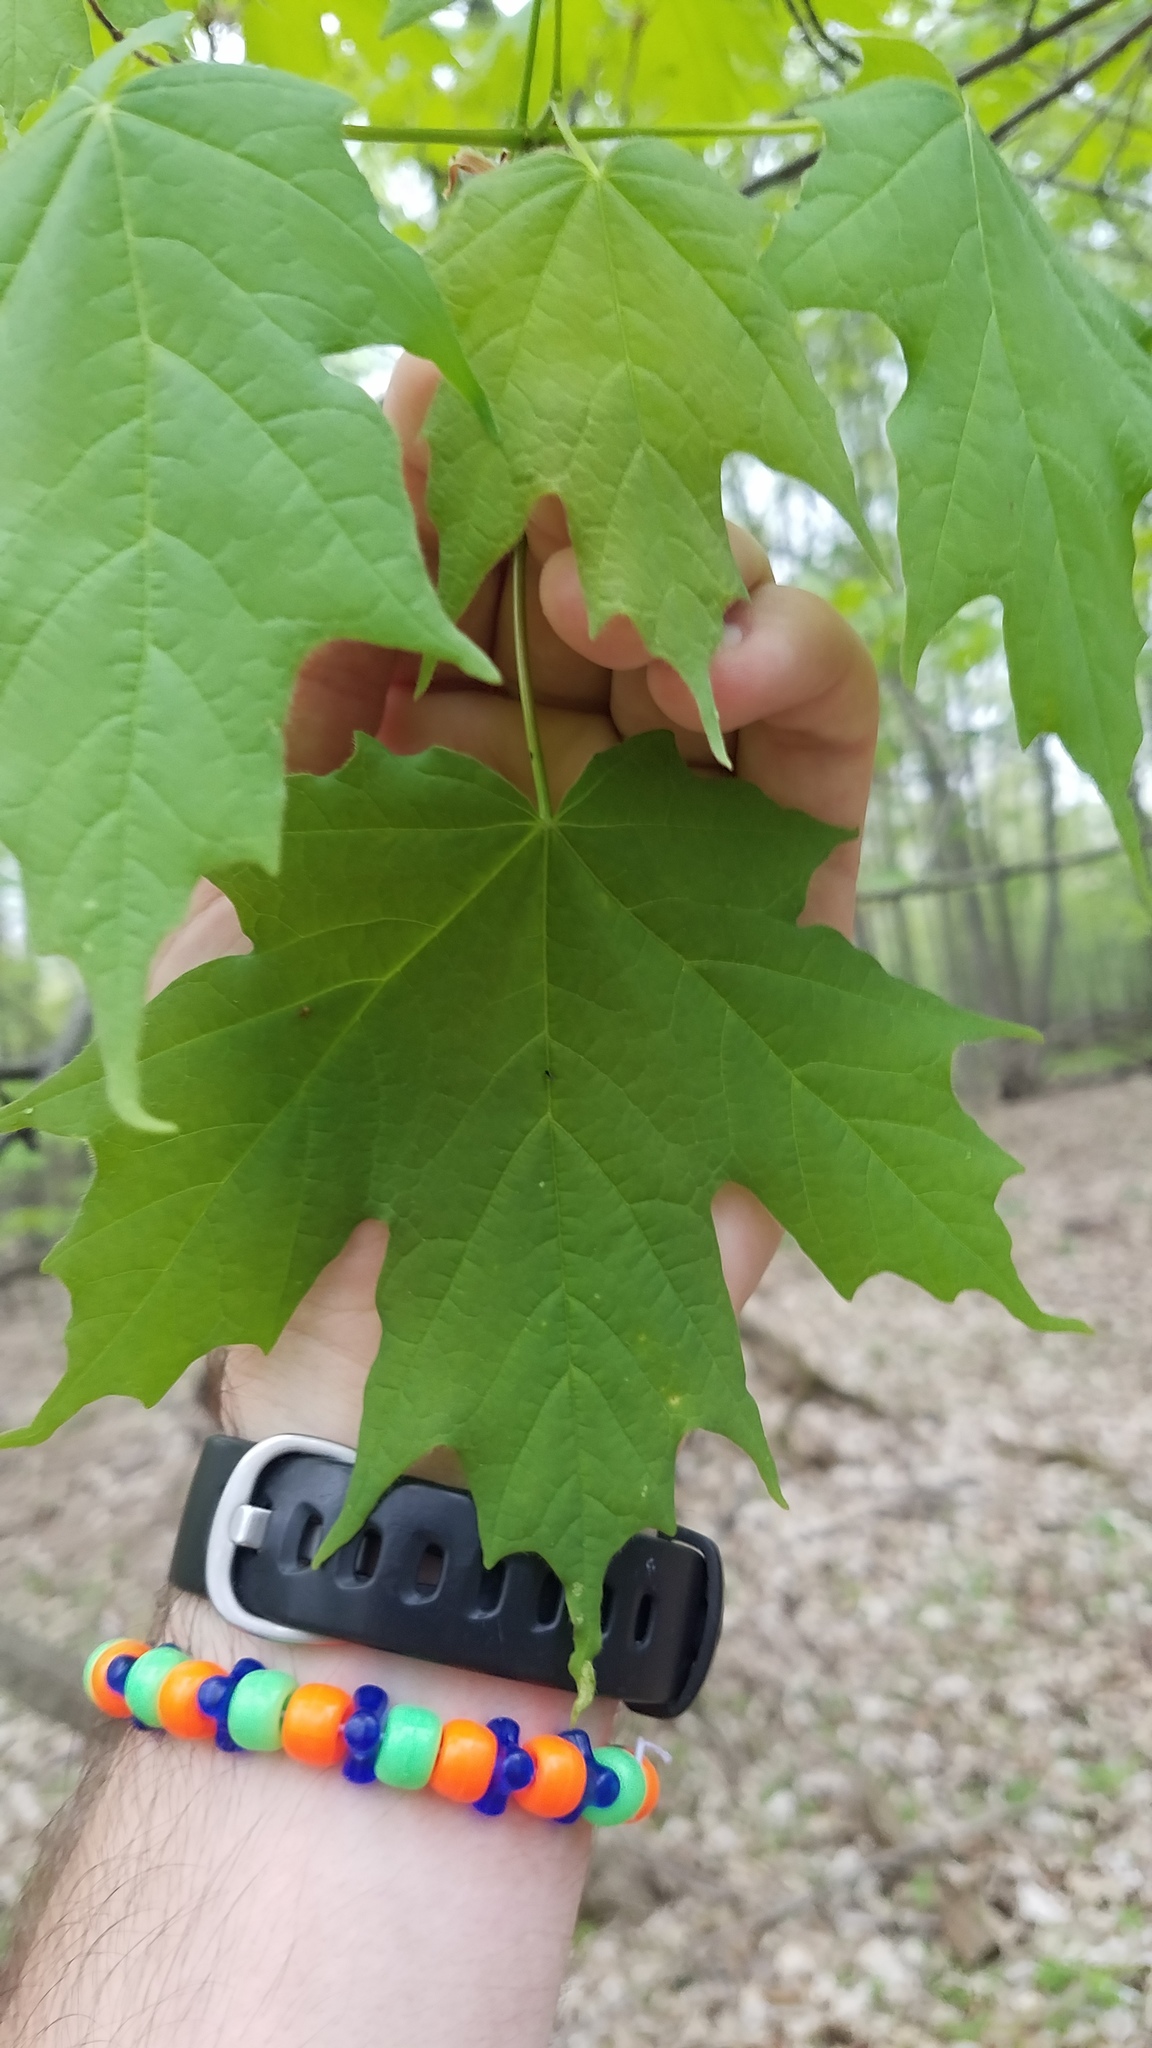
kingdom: Animalia
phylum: Arthropoda
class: Arachnida
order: Trombidiformes
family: Eriophyidae
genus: Vasates
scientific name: Vasates aceriscrumena
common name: Maple spindle gall mite
